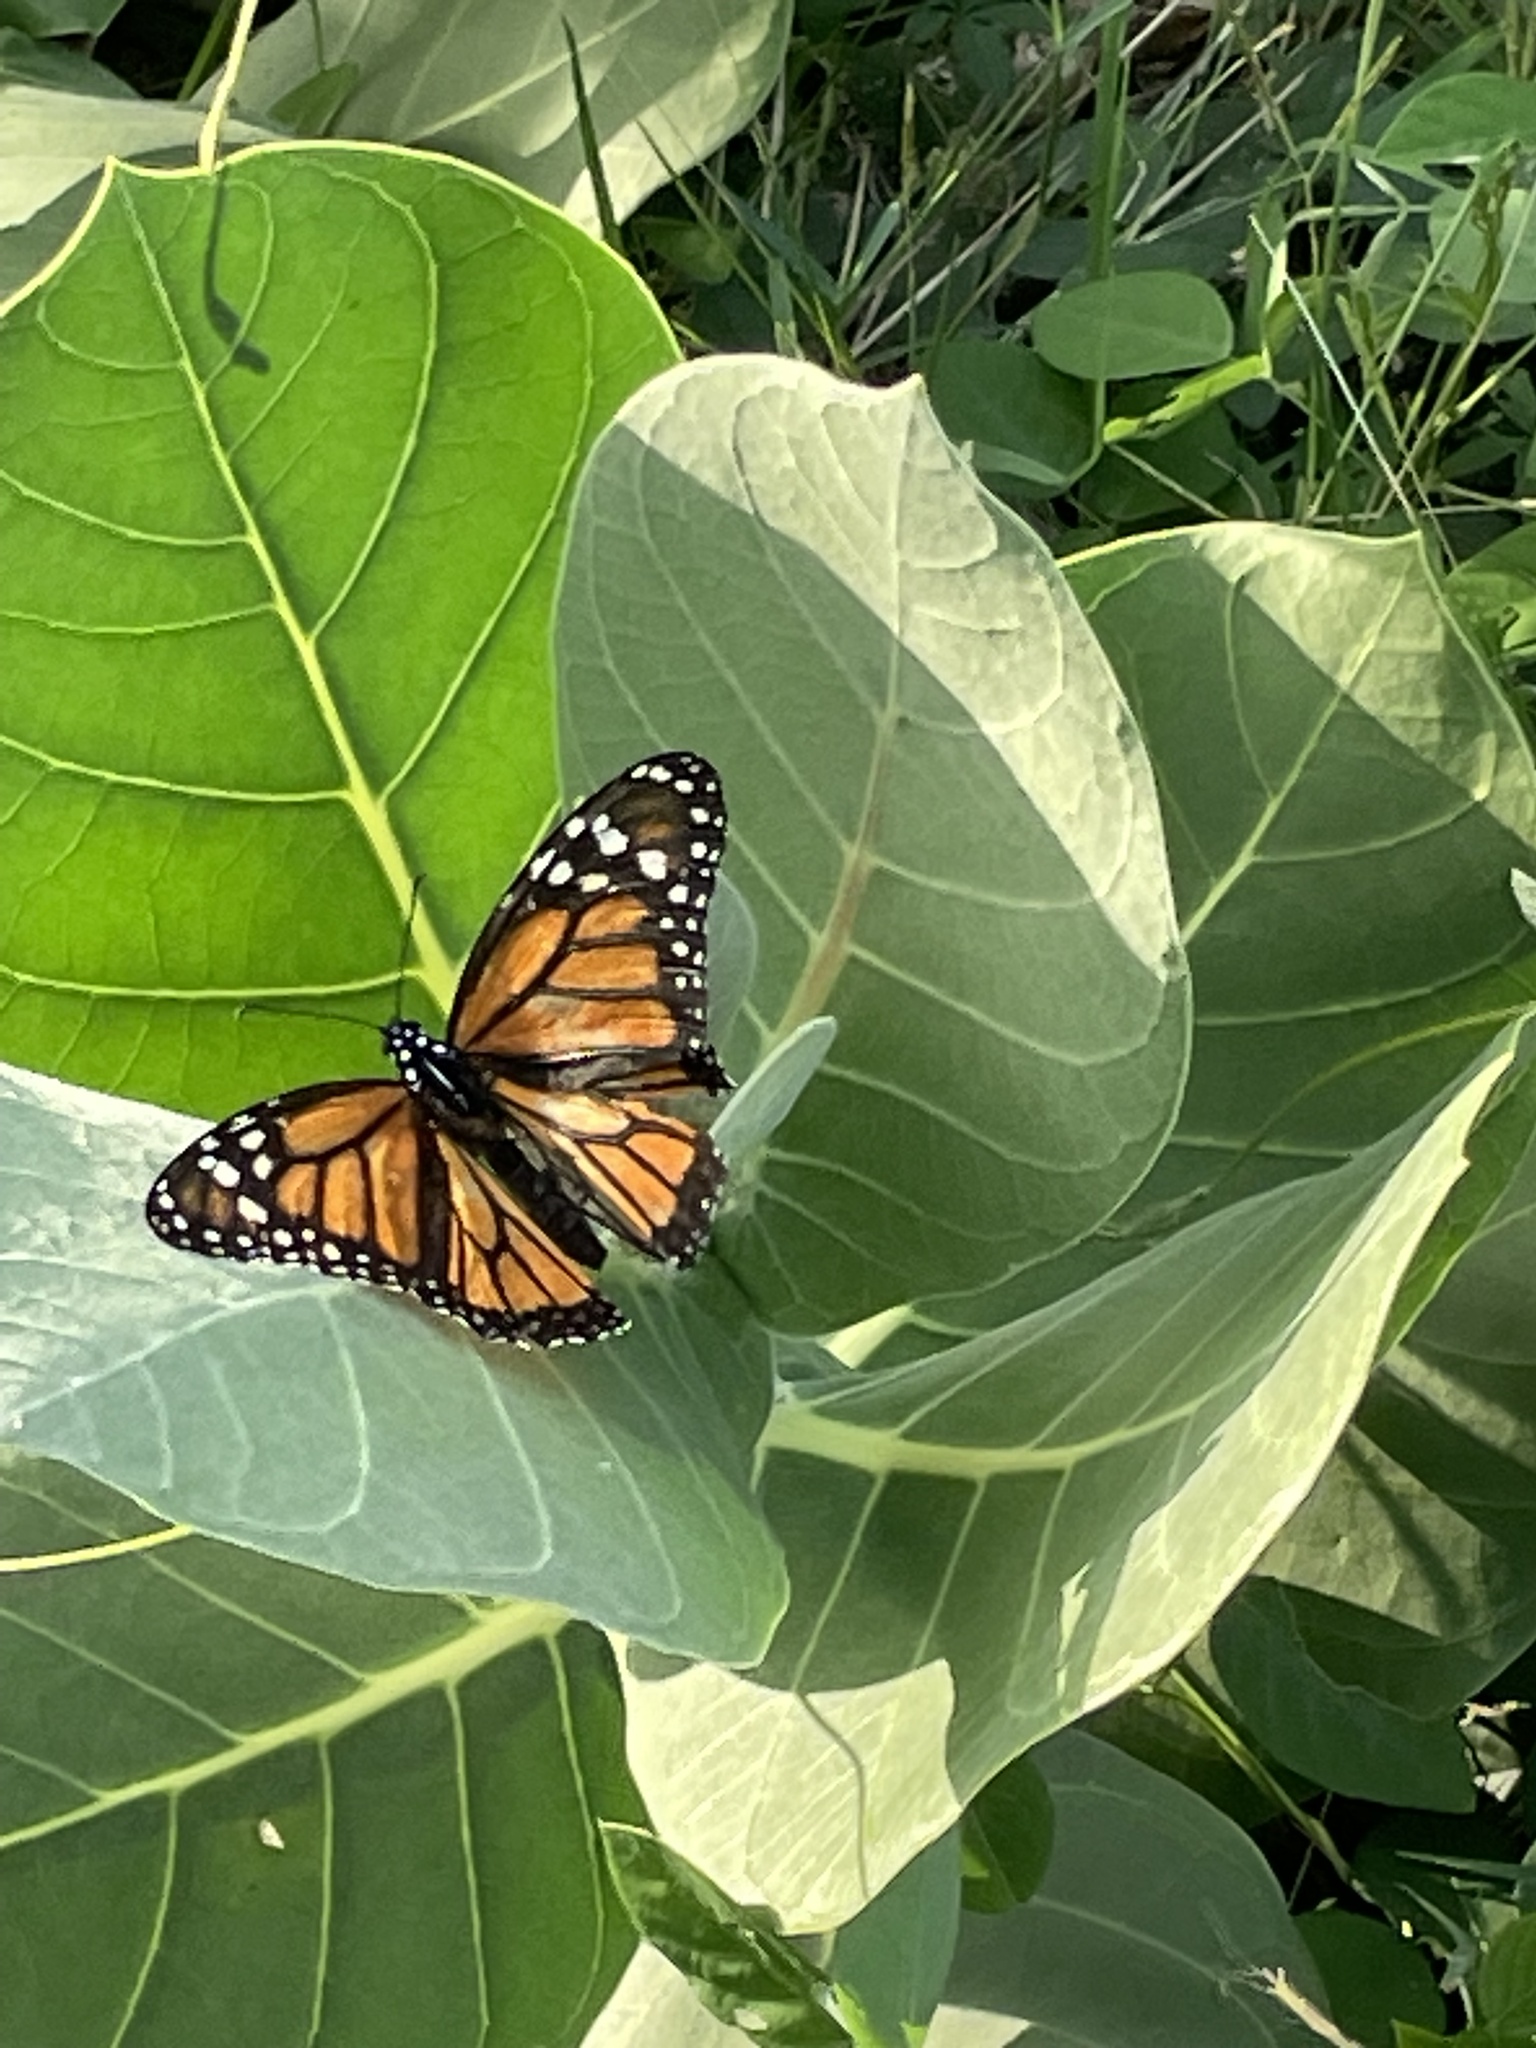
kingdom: Animalia
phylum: Arthropoda
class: Insecta
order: Lepidoptera
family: Nymphalidae
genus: Danaus
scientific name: Danaus plexippus
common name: Monarch
